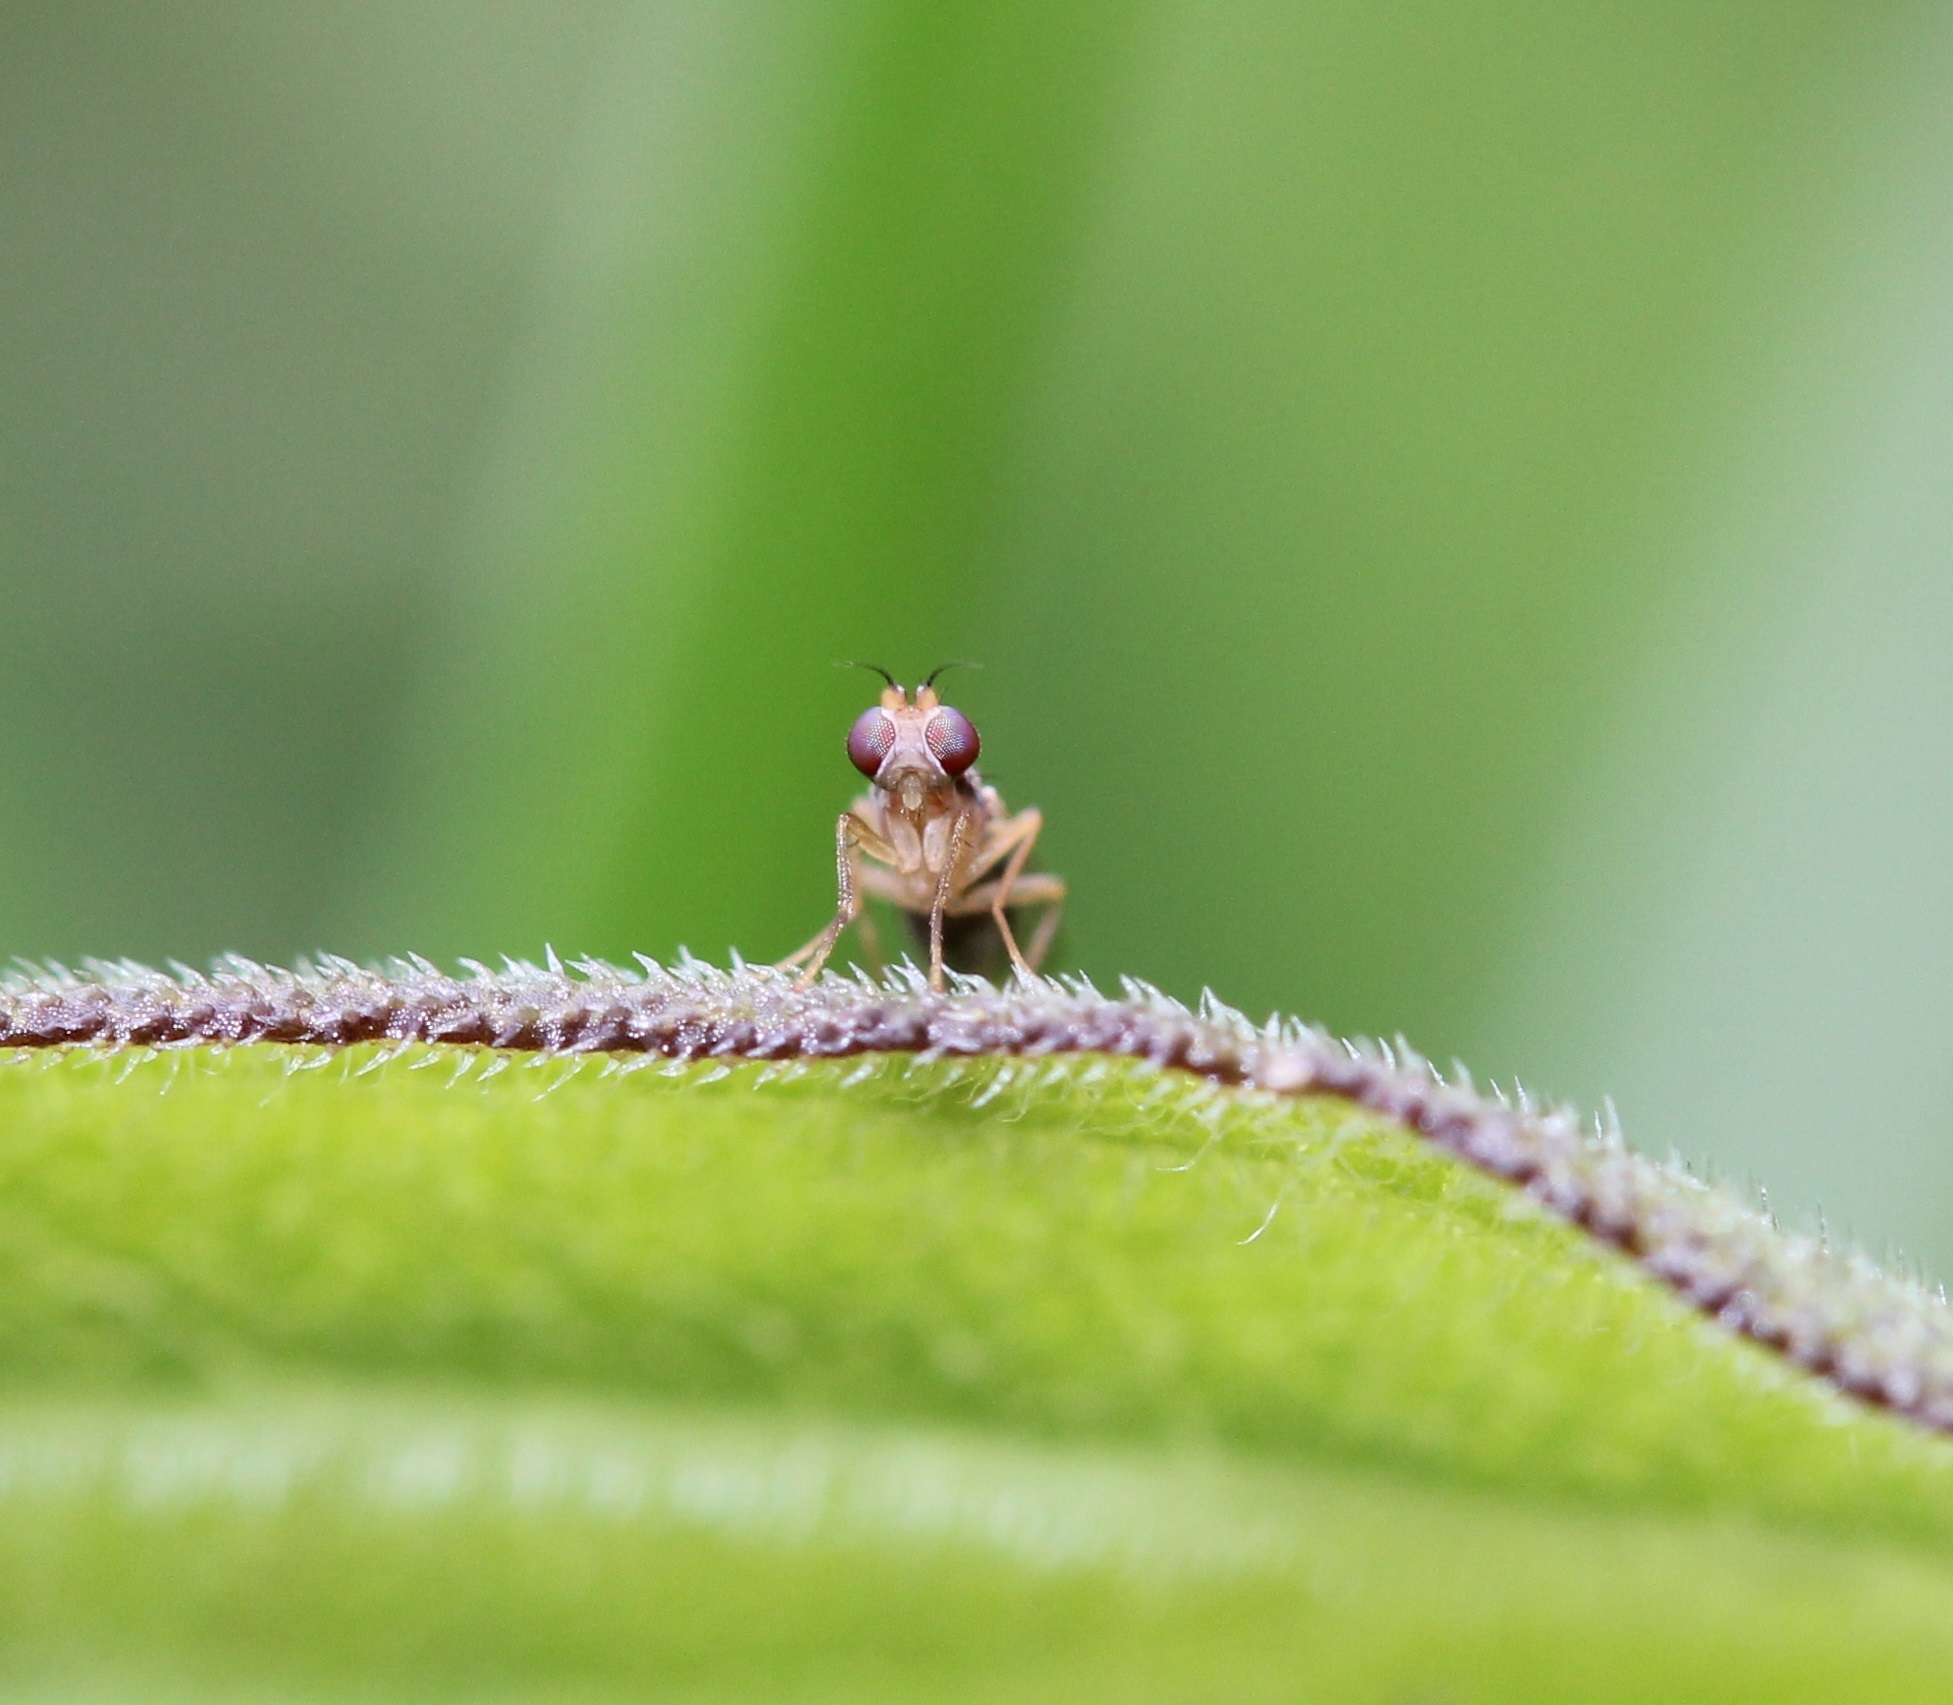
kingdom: Animalia
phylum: Arthropoda
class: Insecta
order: Diptera
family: Anthomyzidae
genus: Mumetopia
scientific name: Mumetopia occipitalis
